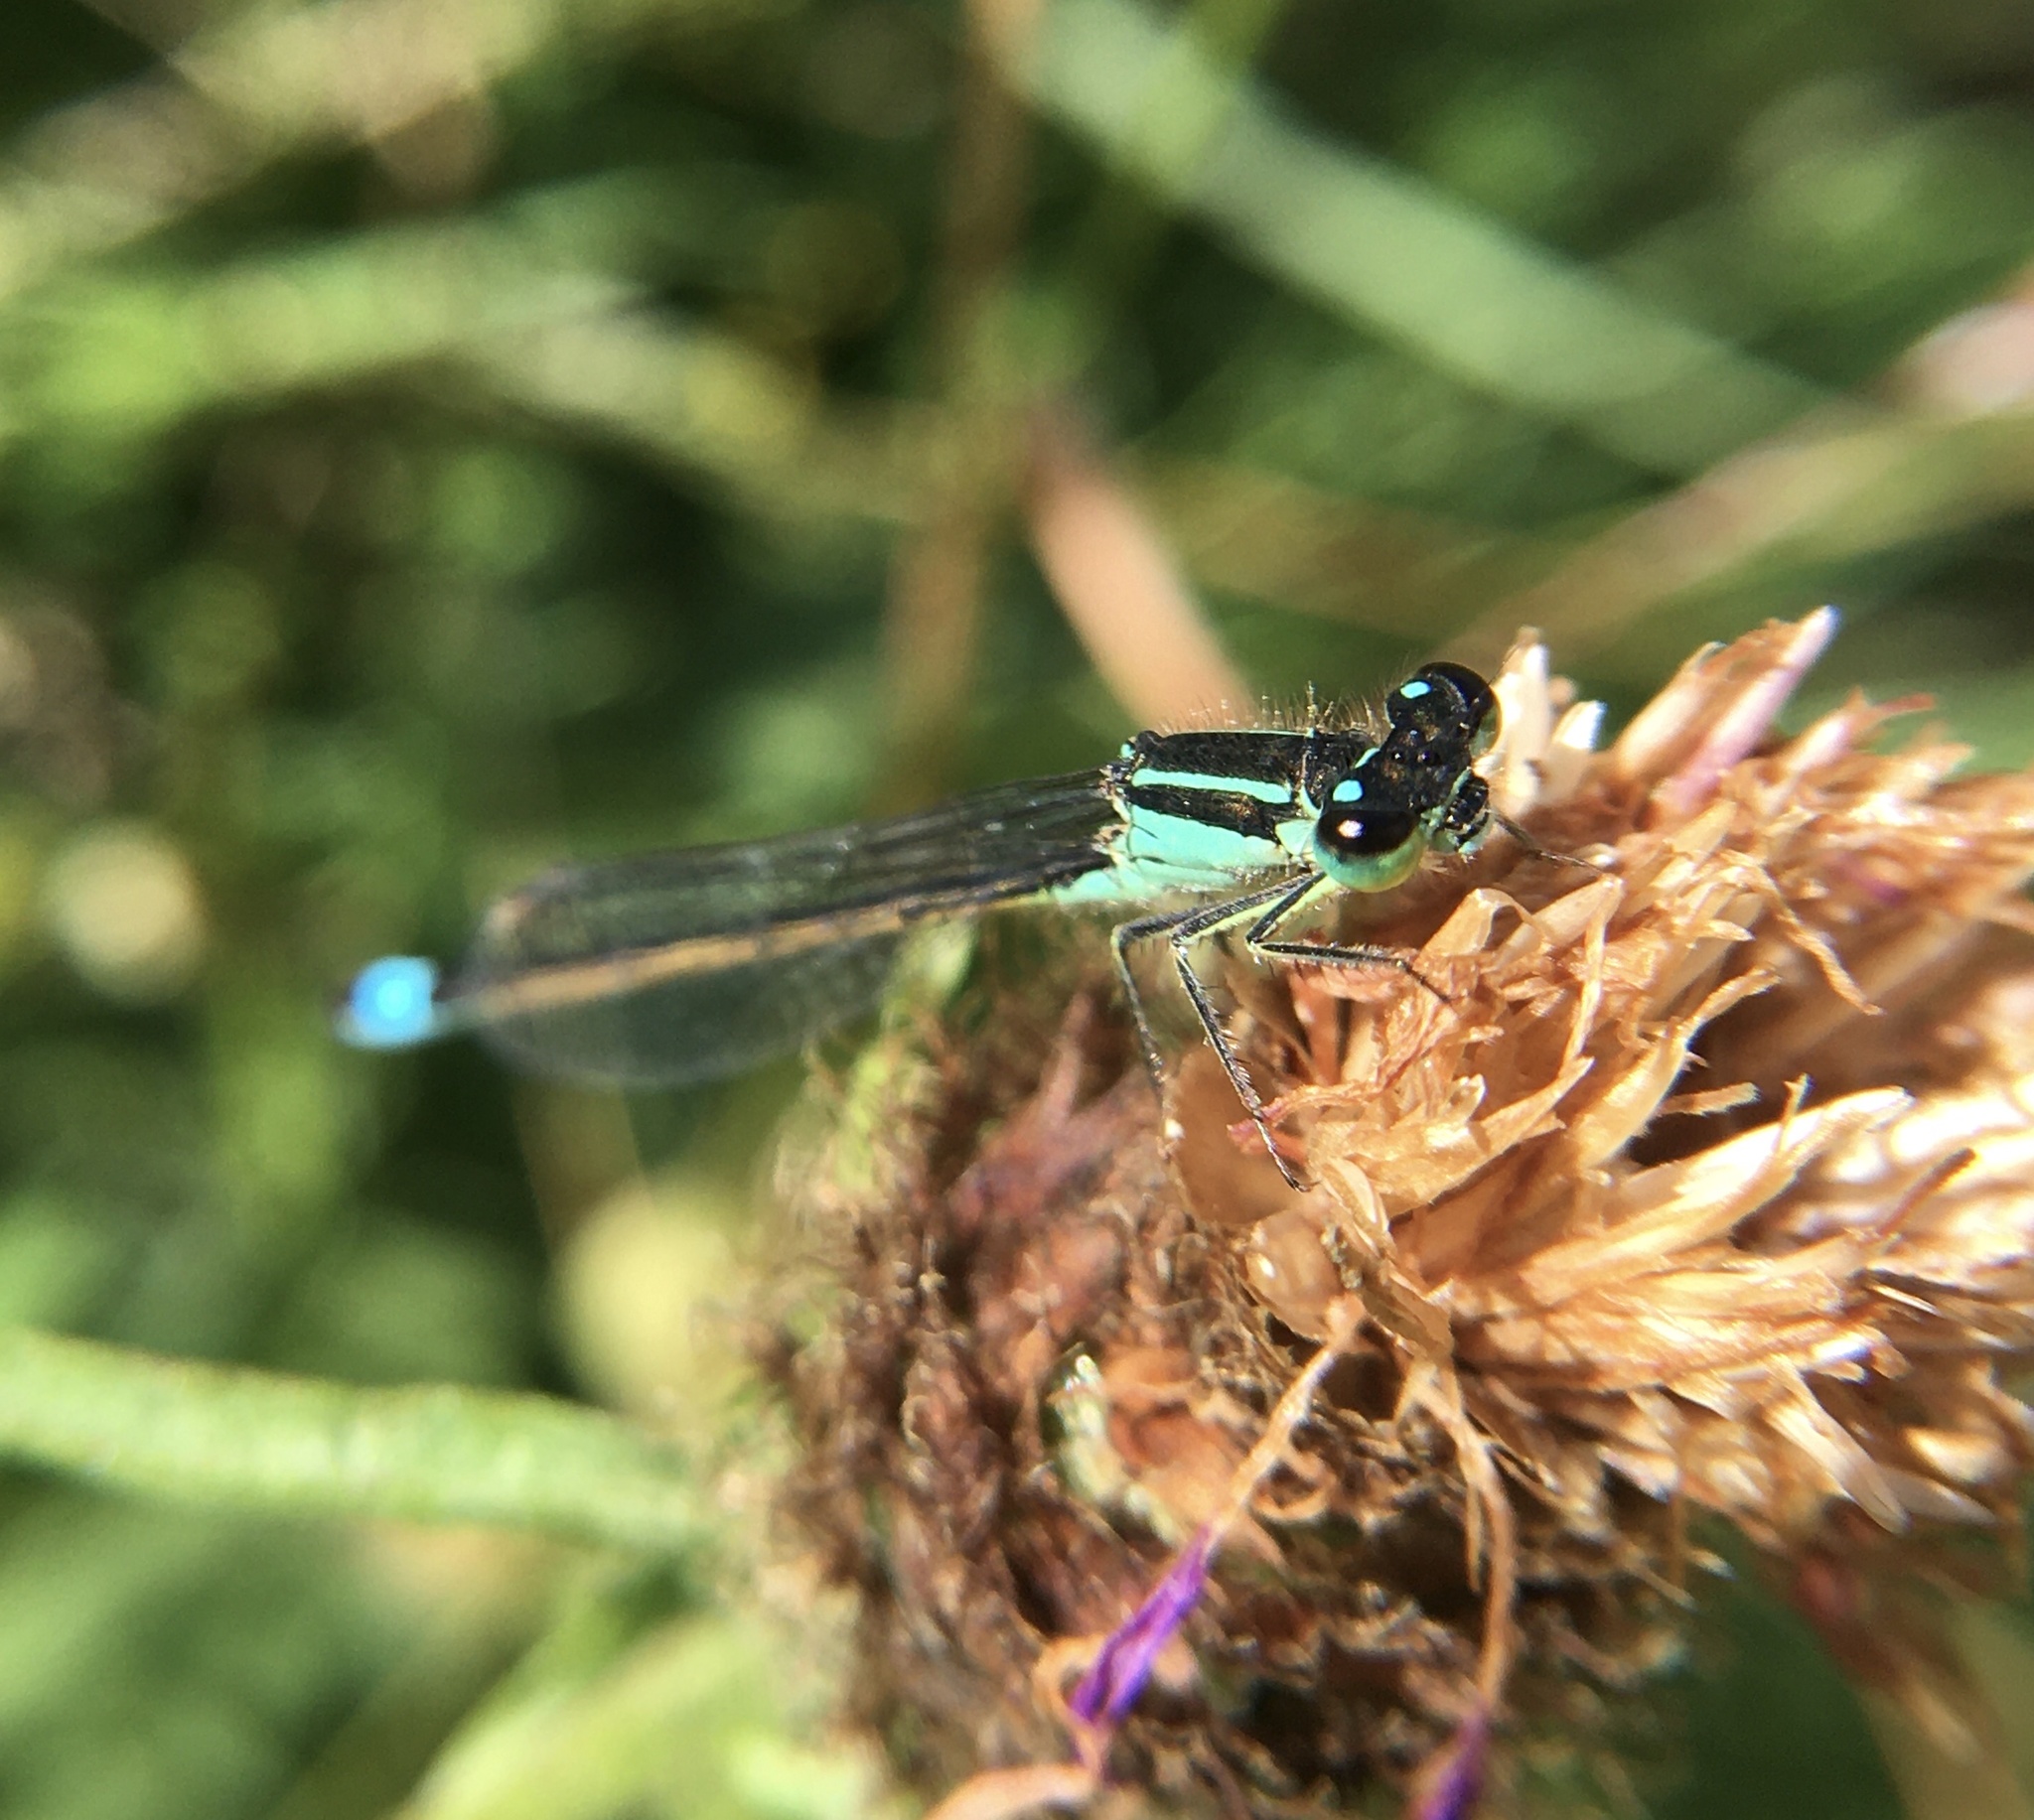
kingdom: Animalia
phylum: Arthropoda
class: Insecta
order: Odonata
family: Coenagrionidae
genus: Ischnura
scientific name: Ischnura elegans
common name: Blue-tailed damselfly
